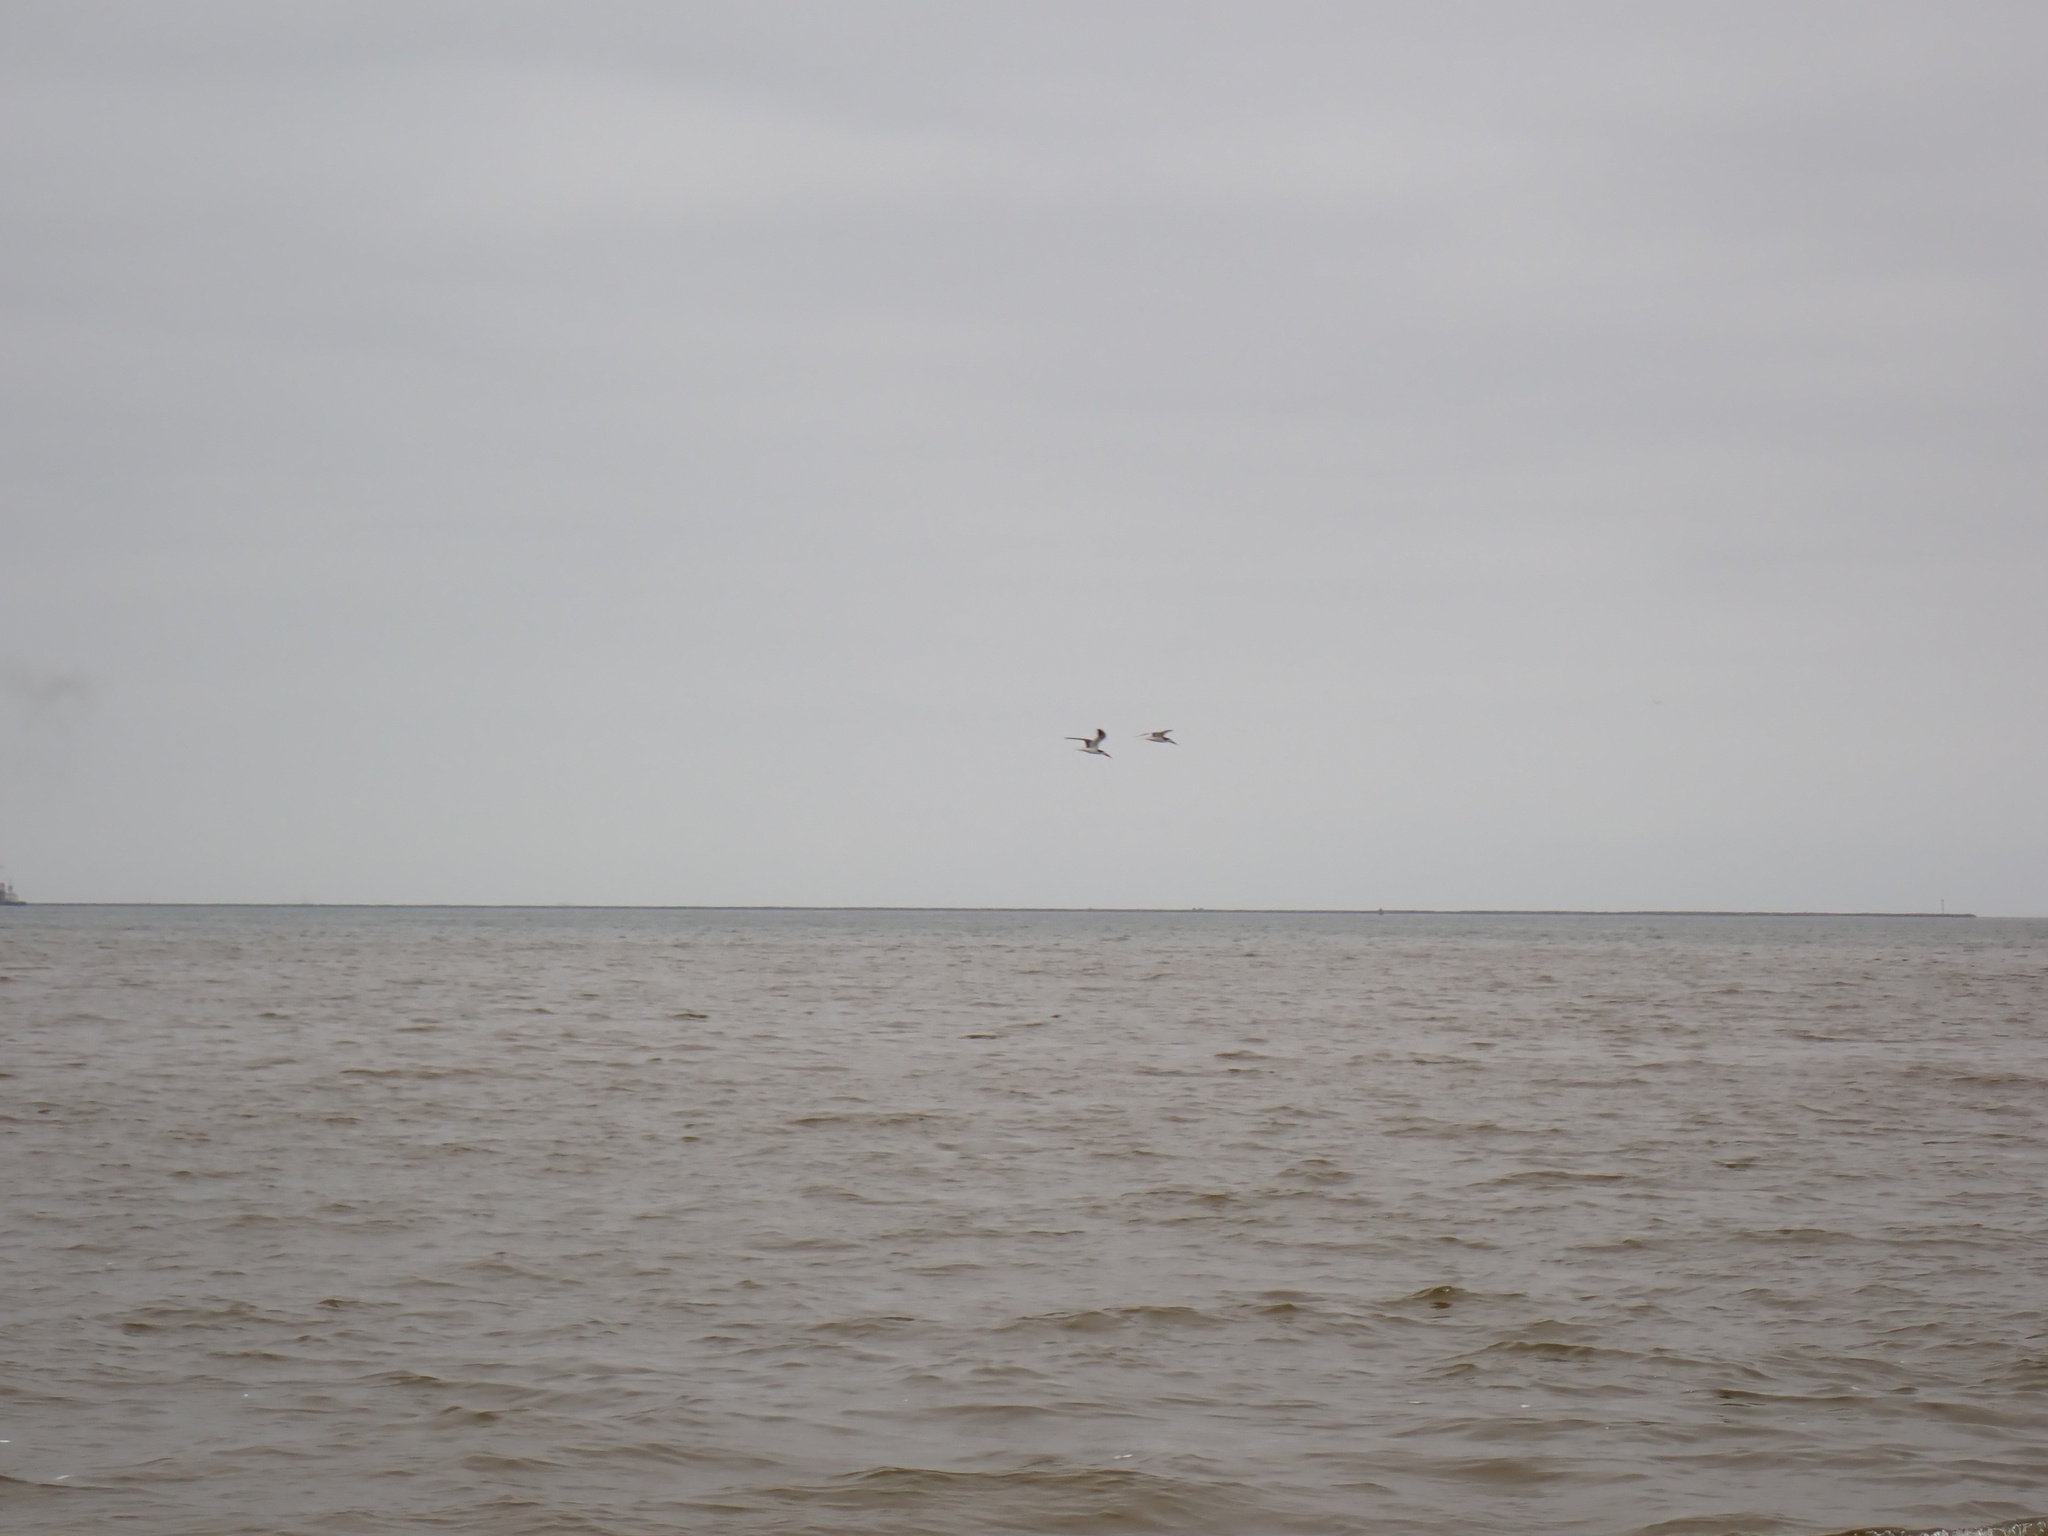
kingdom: Animalia
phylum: Chordata
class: Aves
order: Charadriiformes
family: Laridae
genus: Rynchops
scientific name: Rynchops niger
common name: Black skimmer
